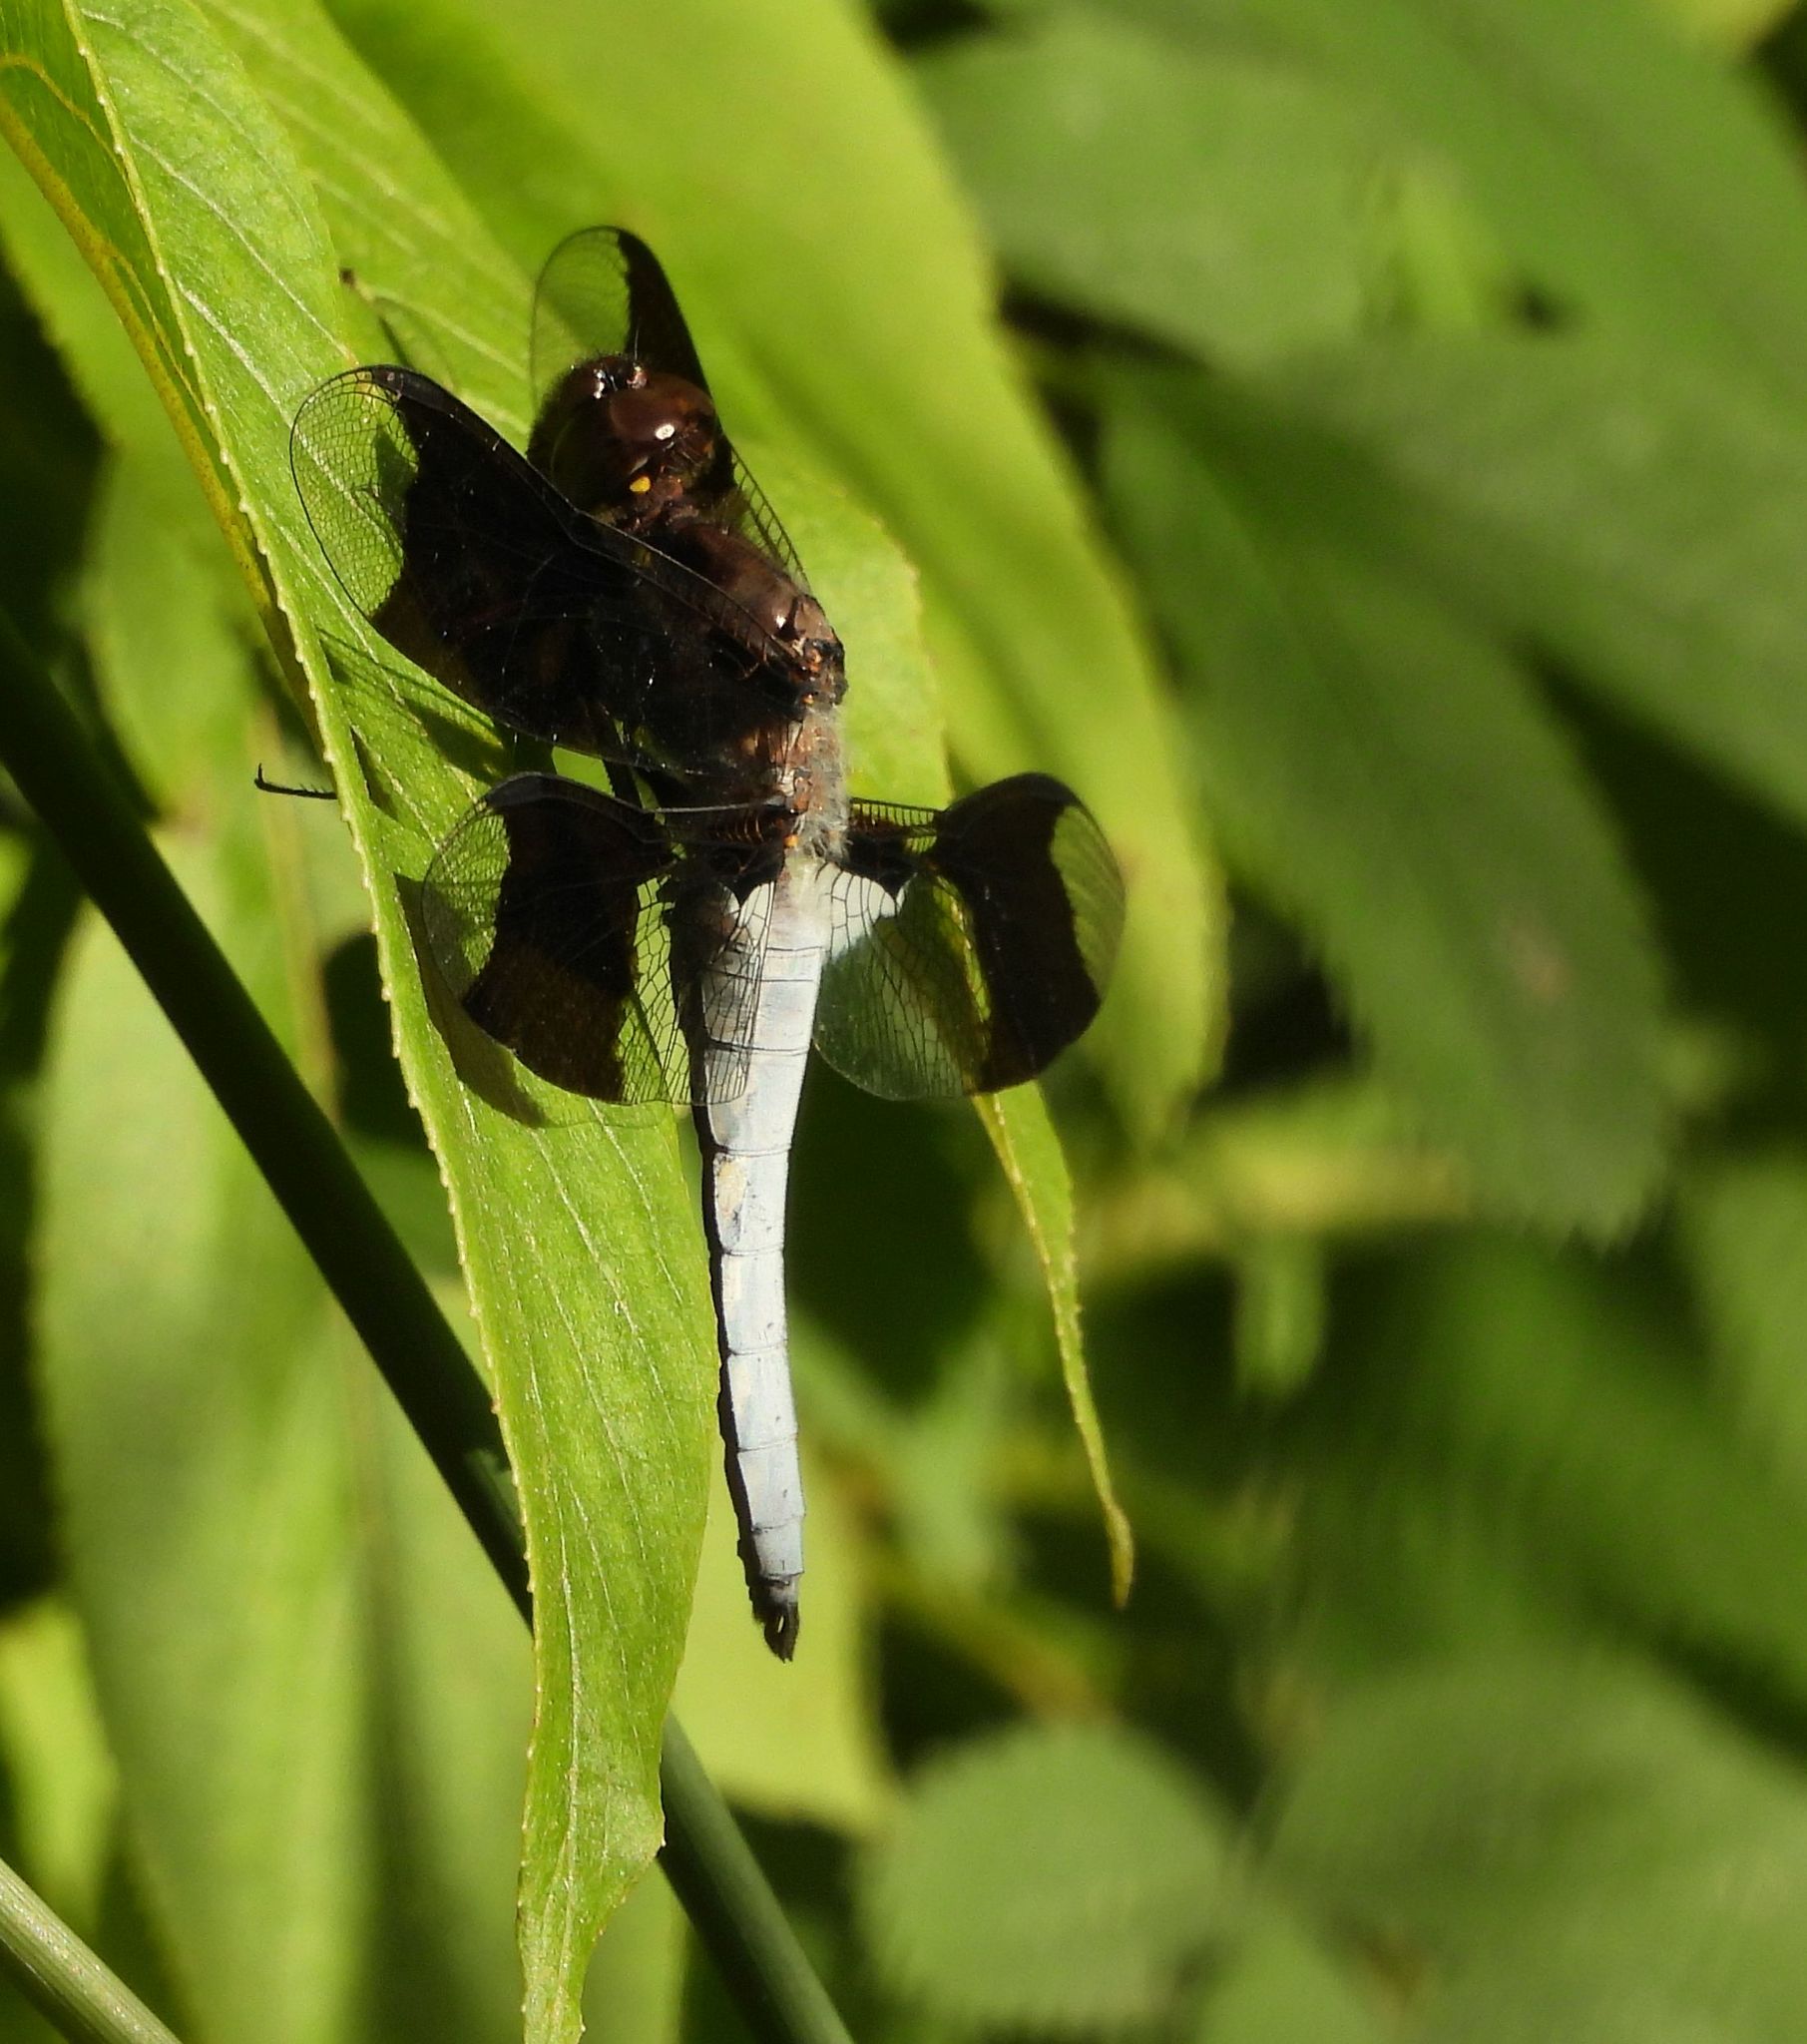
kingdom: Animalia
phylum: Arthropoda
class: Insecta
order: Odonata
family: Libellulidae
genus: Plathemis
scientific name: Plathemis lydia
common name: Common whitetail
